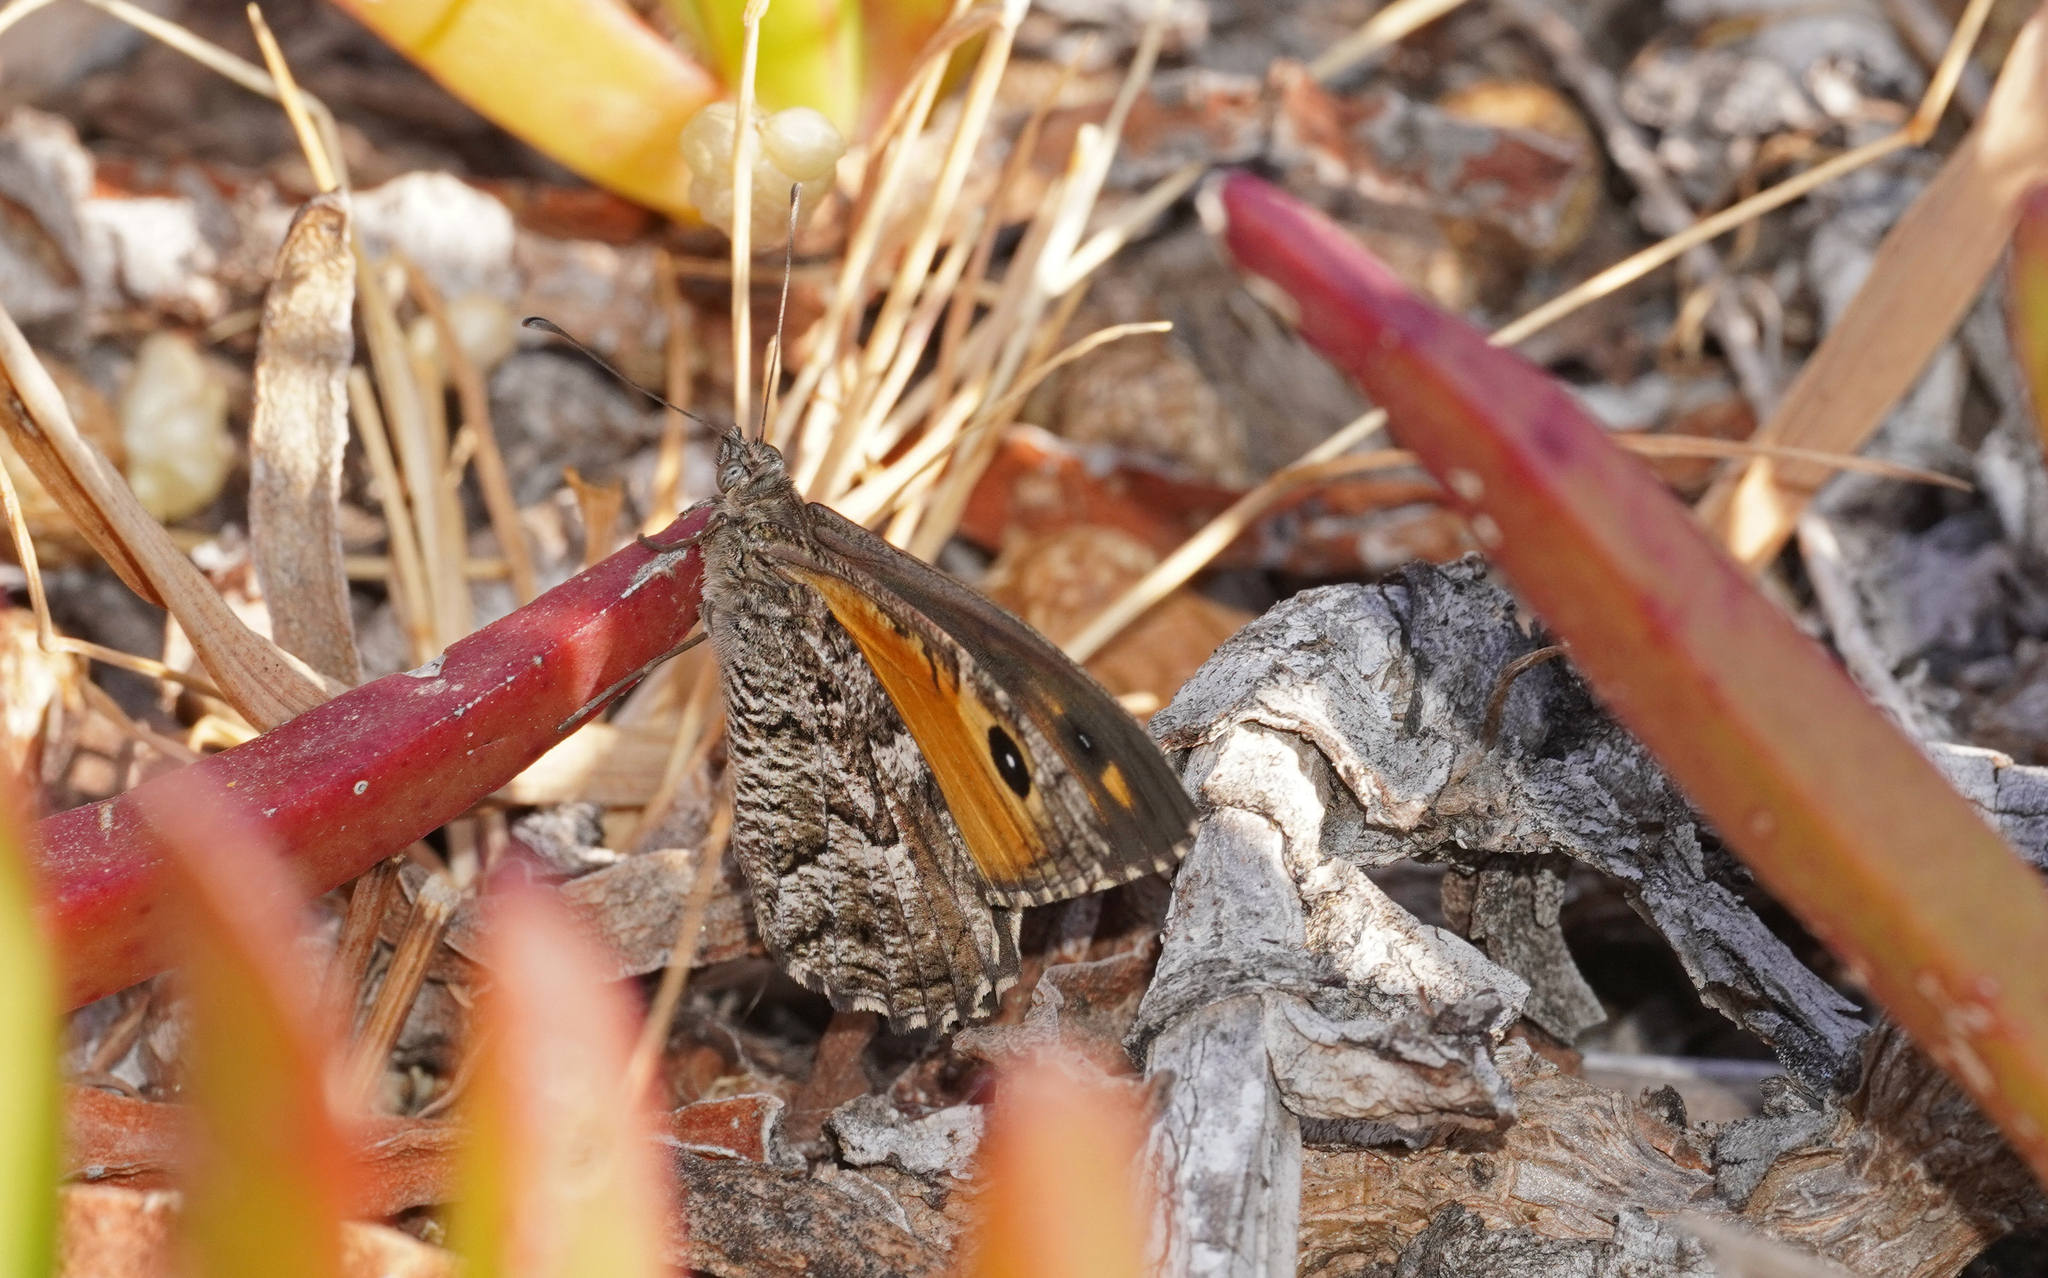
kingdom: Animalia
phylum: Arthropoda
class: Insecta
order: Lepidoptera
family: Nymphalidae
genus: Hipparchia
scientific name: Hipparchia algirica
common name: Mountain grayling
